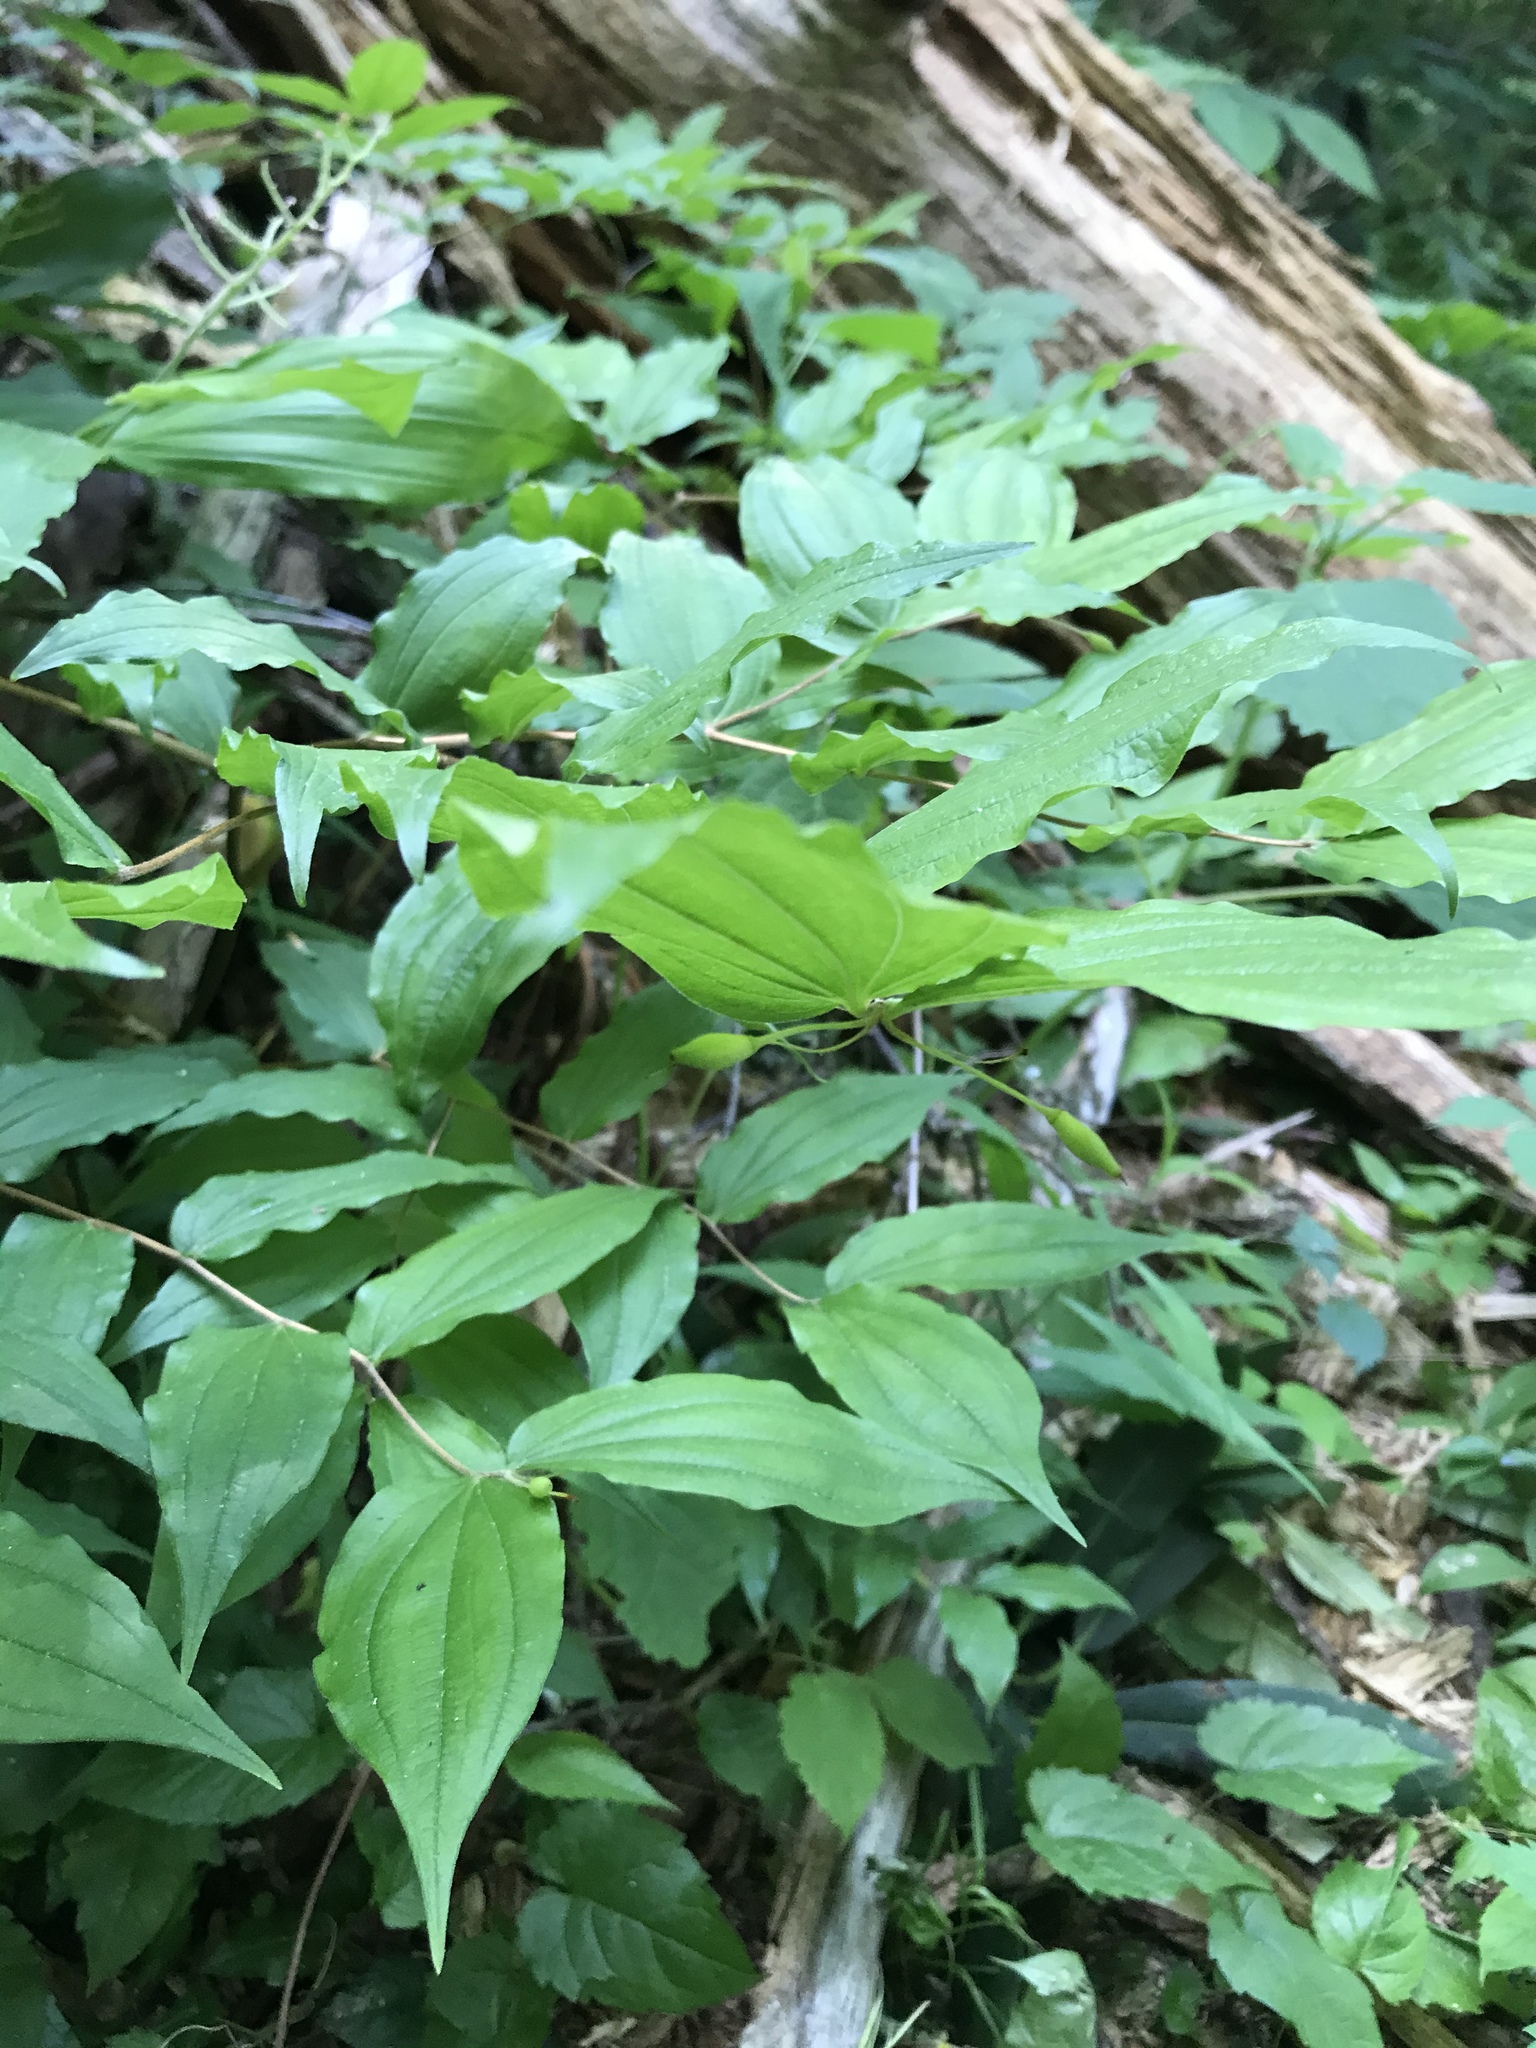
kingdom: Plantae
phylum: Tracheophyta
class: Liliopsida
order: Liliales
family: Liliaceae
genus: Prosartes
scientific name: Prosartes lanuginosa
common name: Hairy mandarin
